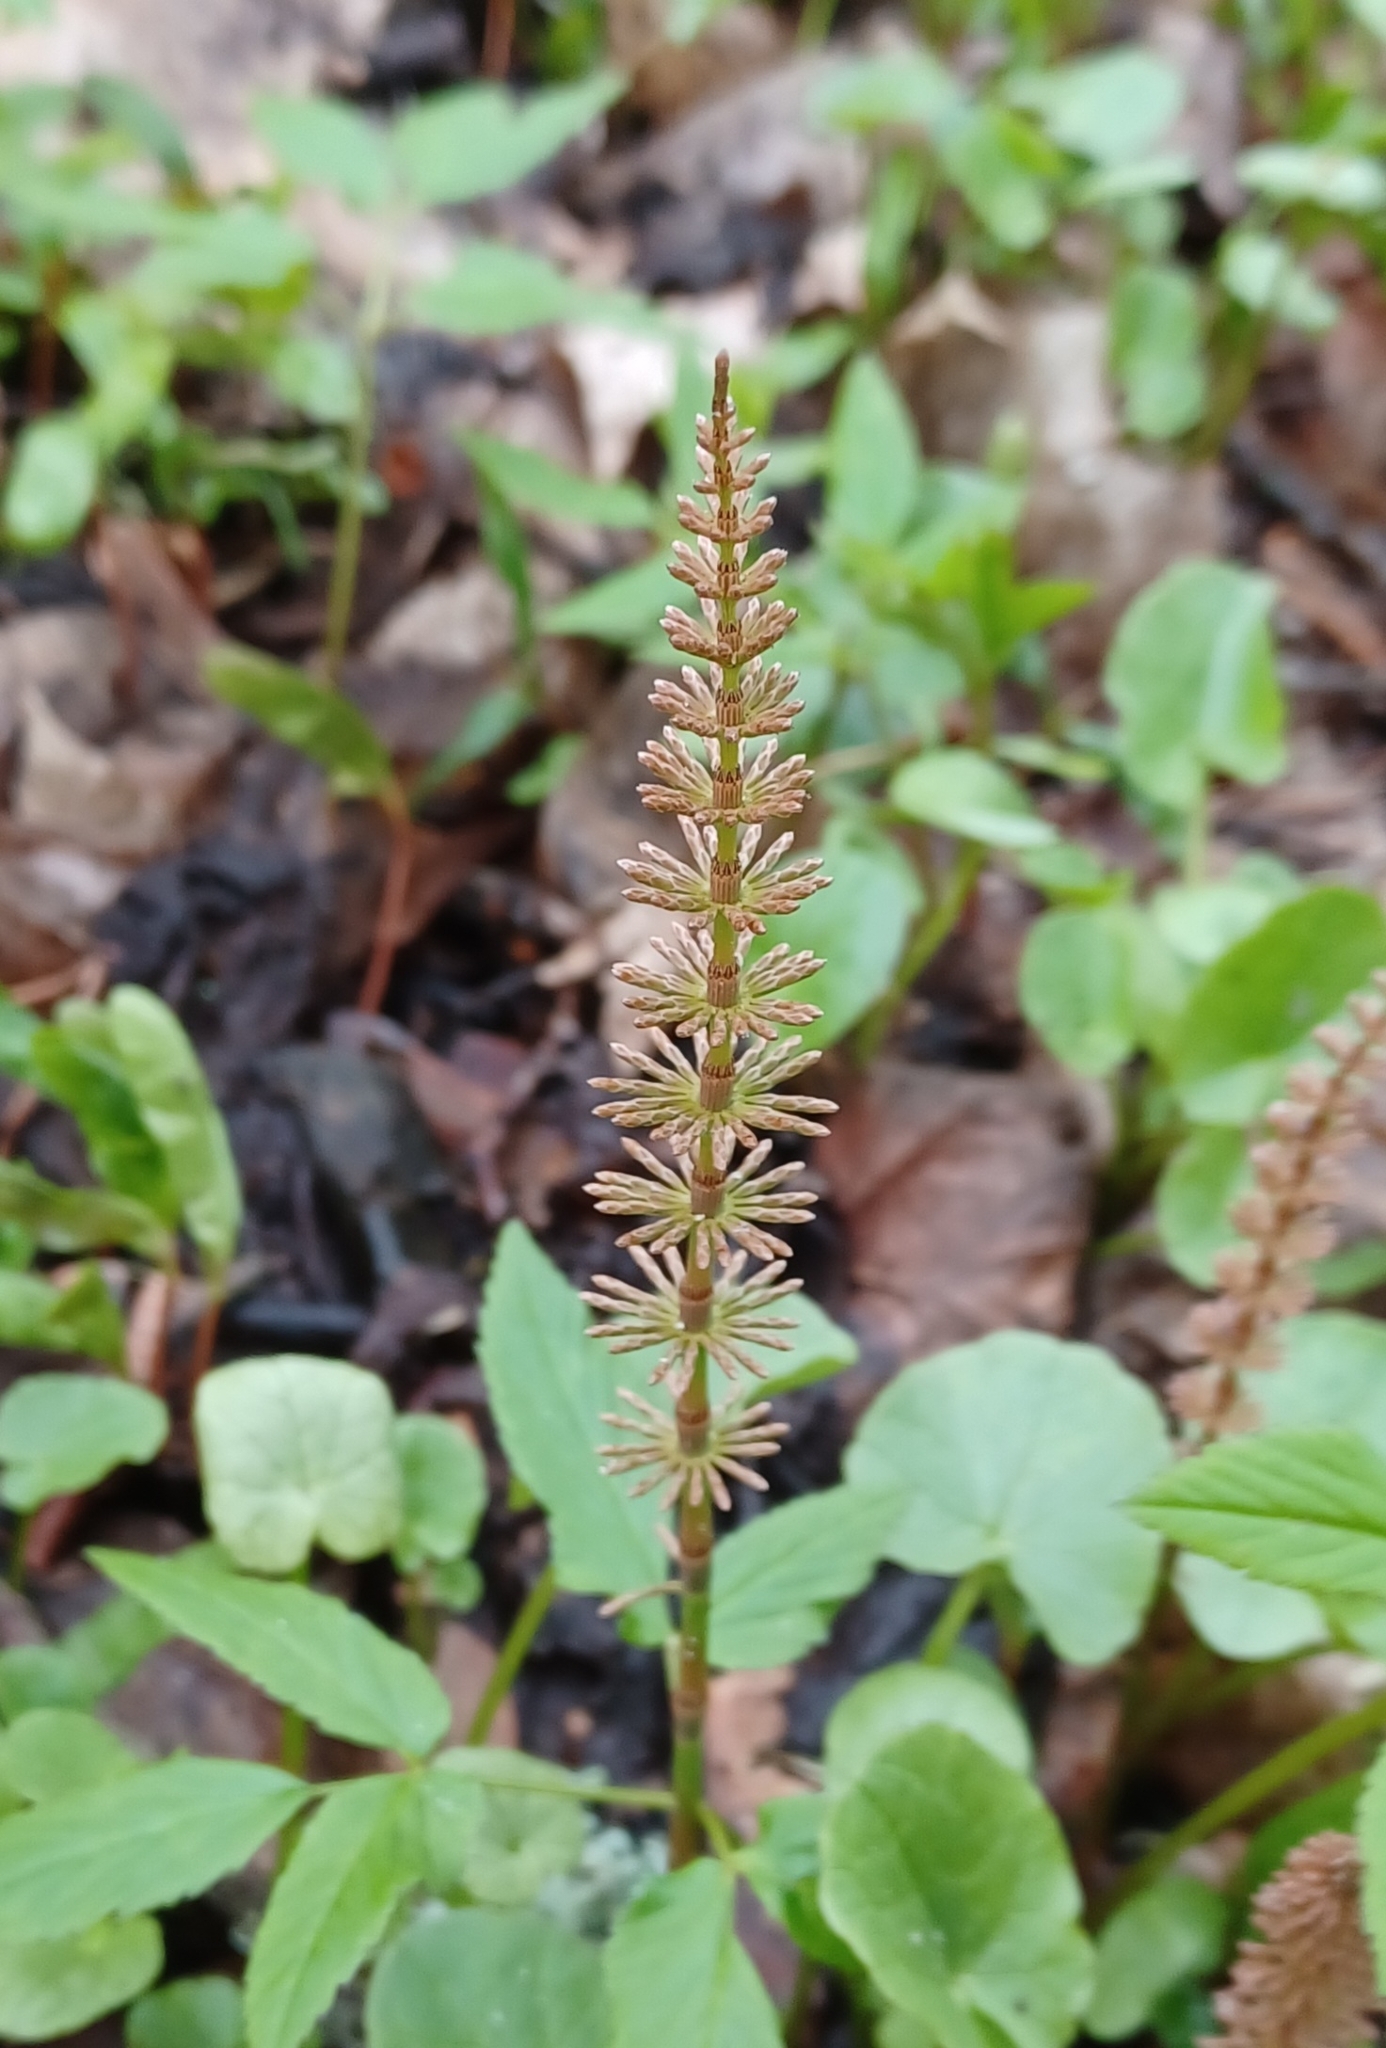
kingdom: Plantae
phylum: Tracheophyta
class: Polypodiopsida
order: Equisetales
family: Equisetaceae
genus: Equisetum
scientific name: Equisetum pratense
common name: Meadow horsetail
